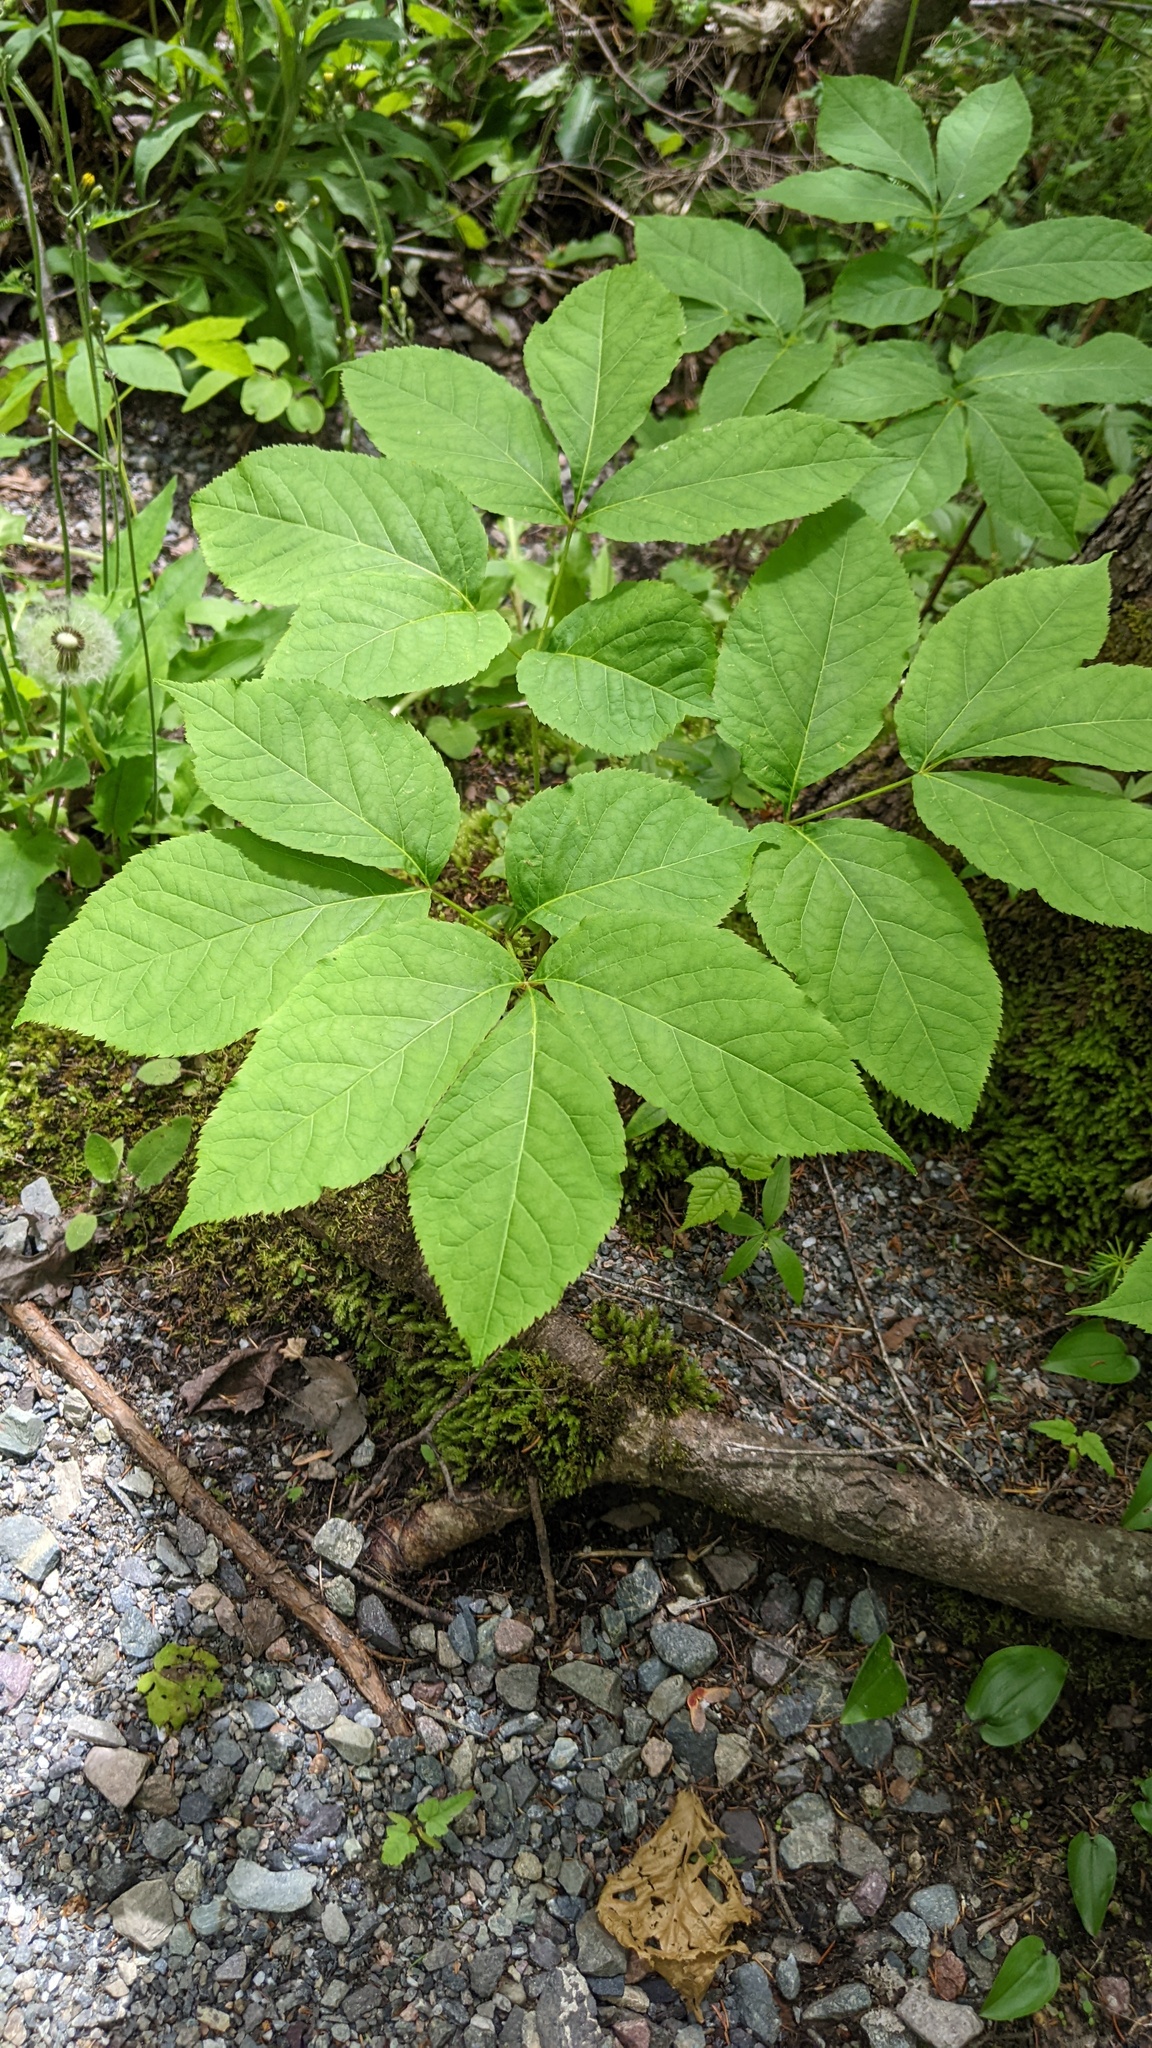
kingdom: Plantae
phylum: Tracheophyta
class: Magnoliopsida
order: Apiales
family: Araliaceae
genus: Aralia
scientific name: Aralia nudicaulis
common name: Wild sarsaparilla
